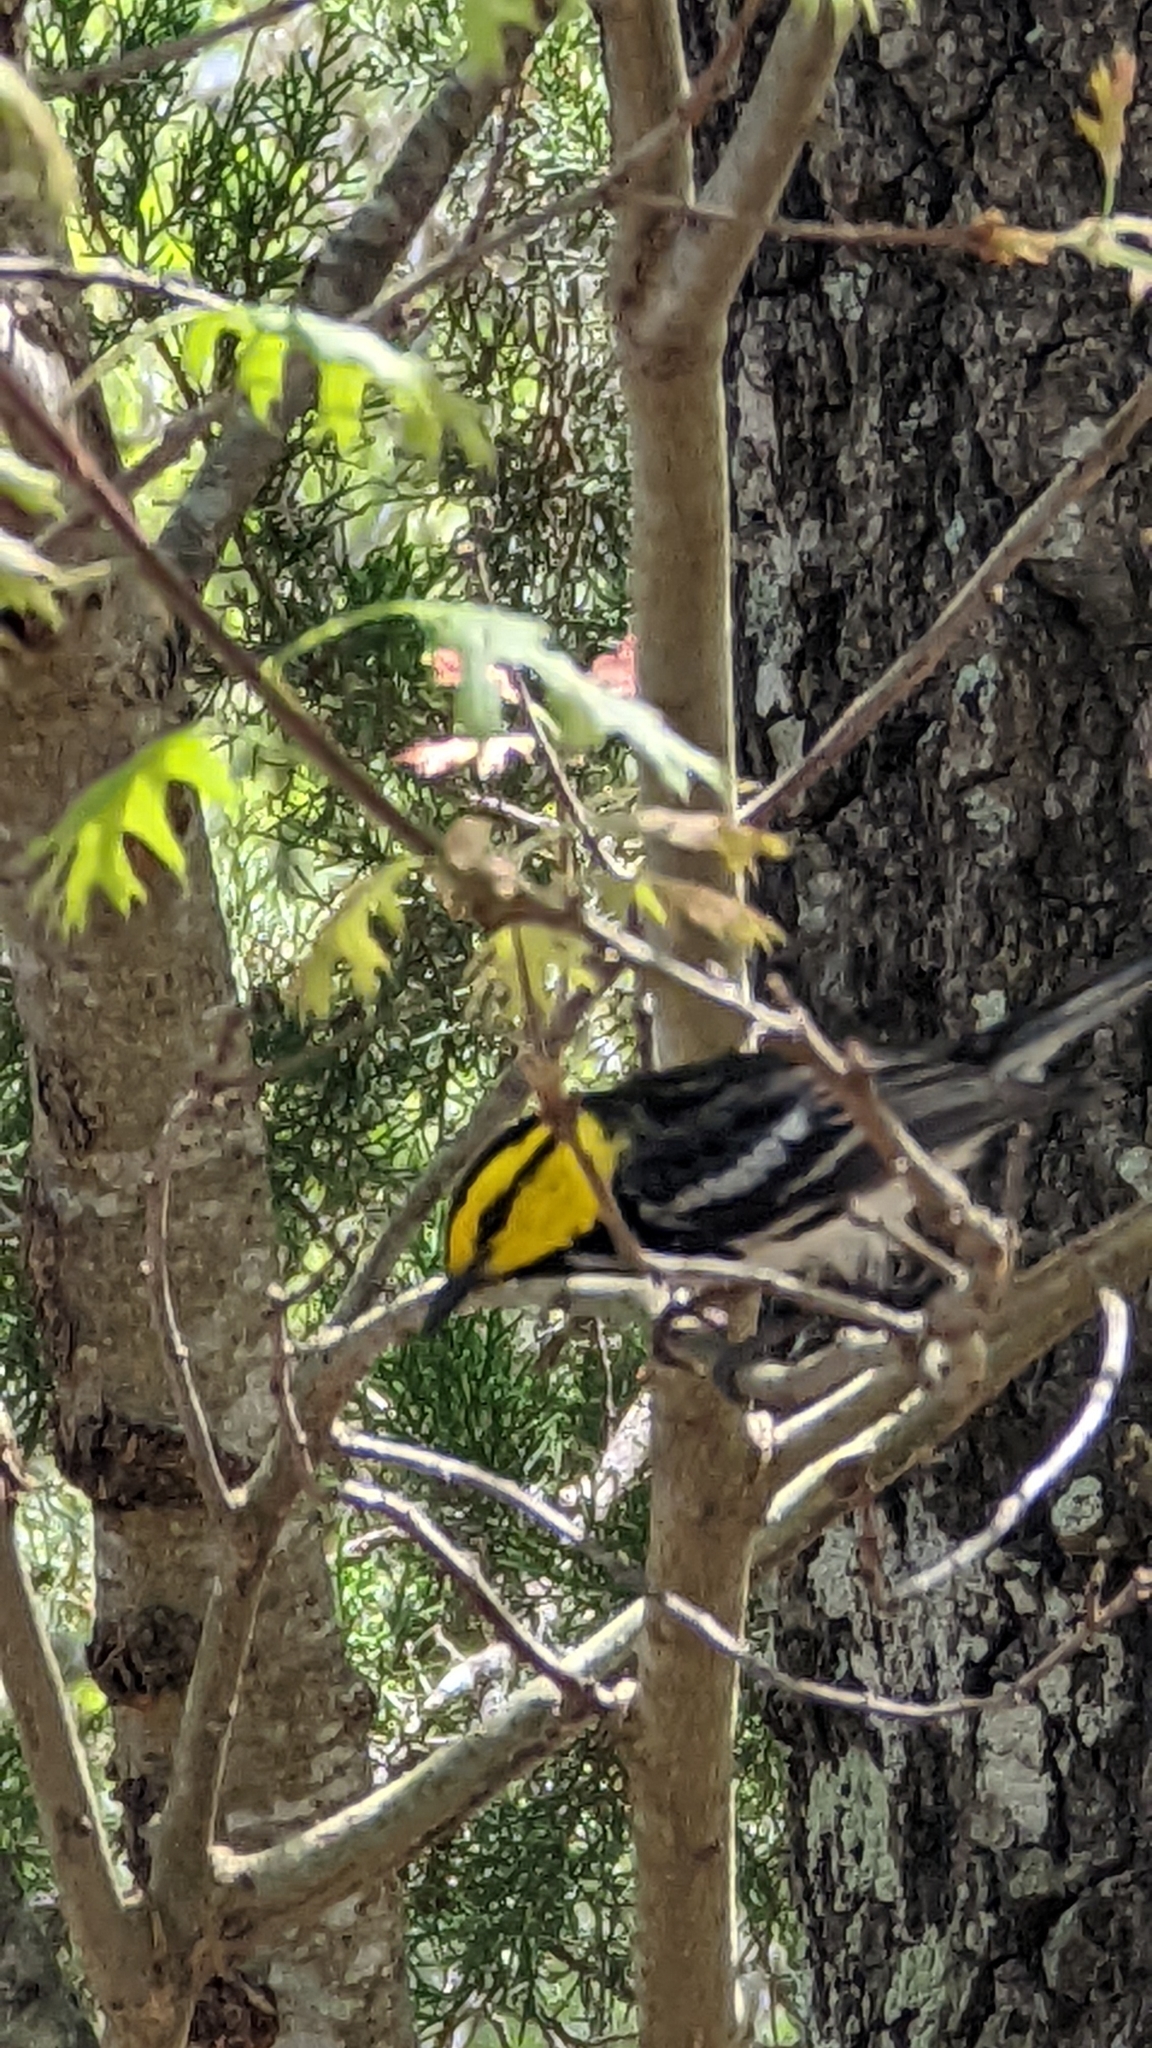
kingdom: Animalia
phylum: Chordata
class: Aves
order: Passeriformes
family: Parulidae
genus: Setophaga
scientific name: Setophaga chrysoparia
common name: Golden-cheeked warbler
